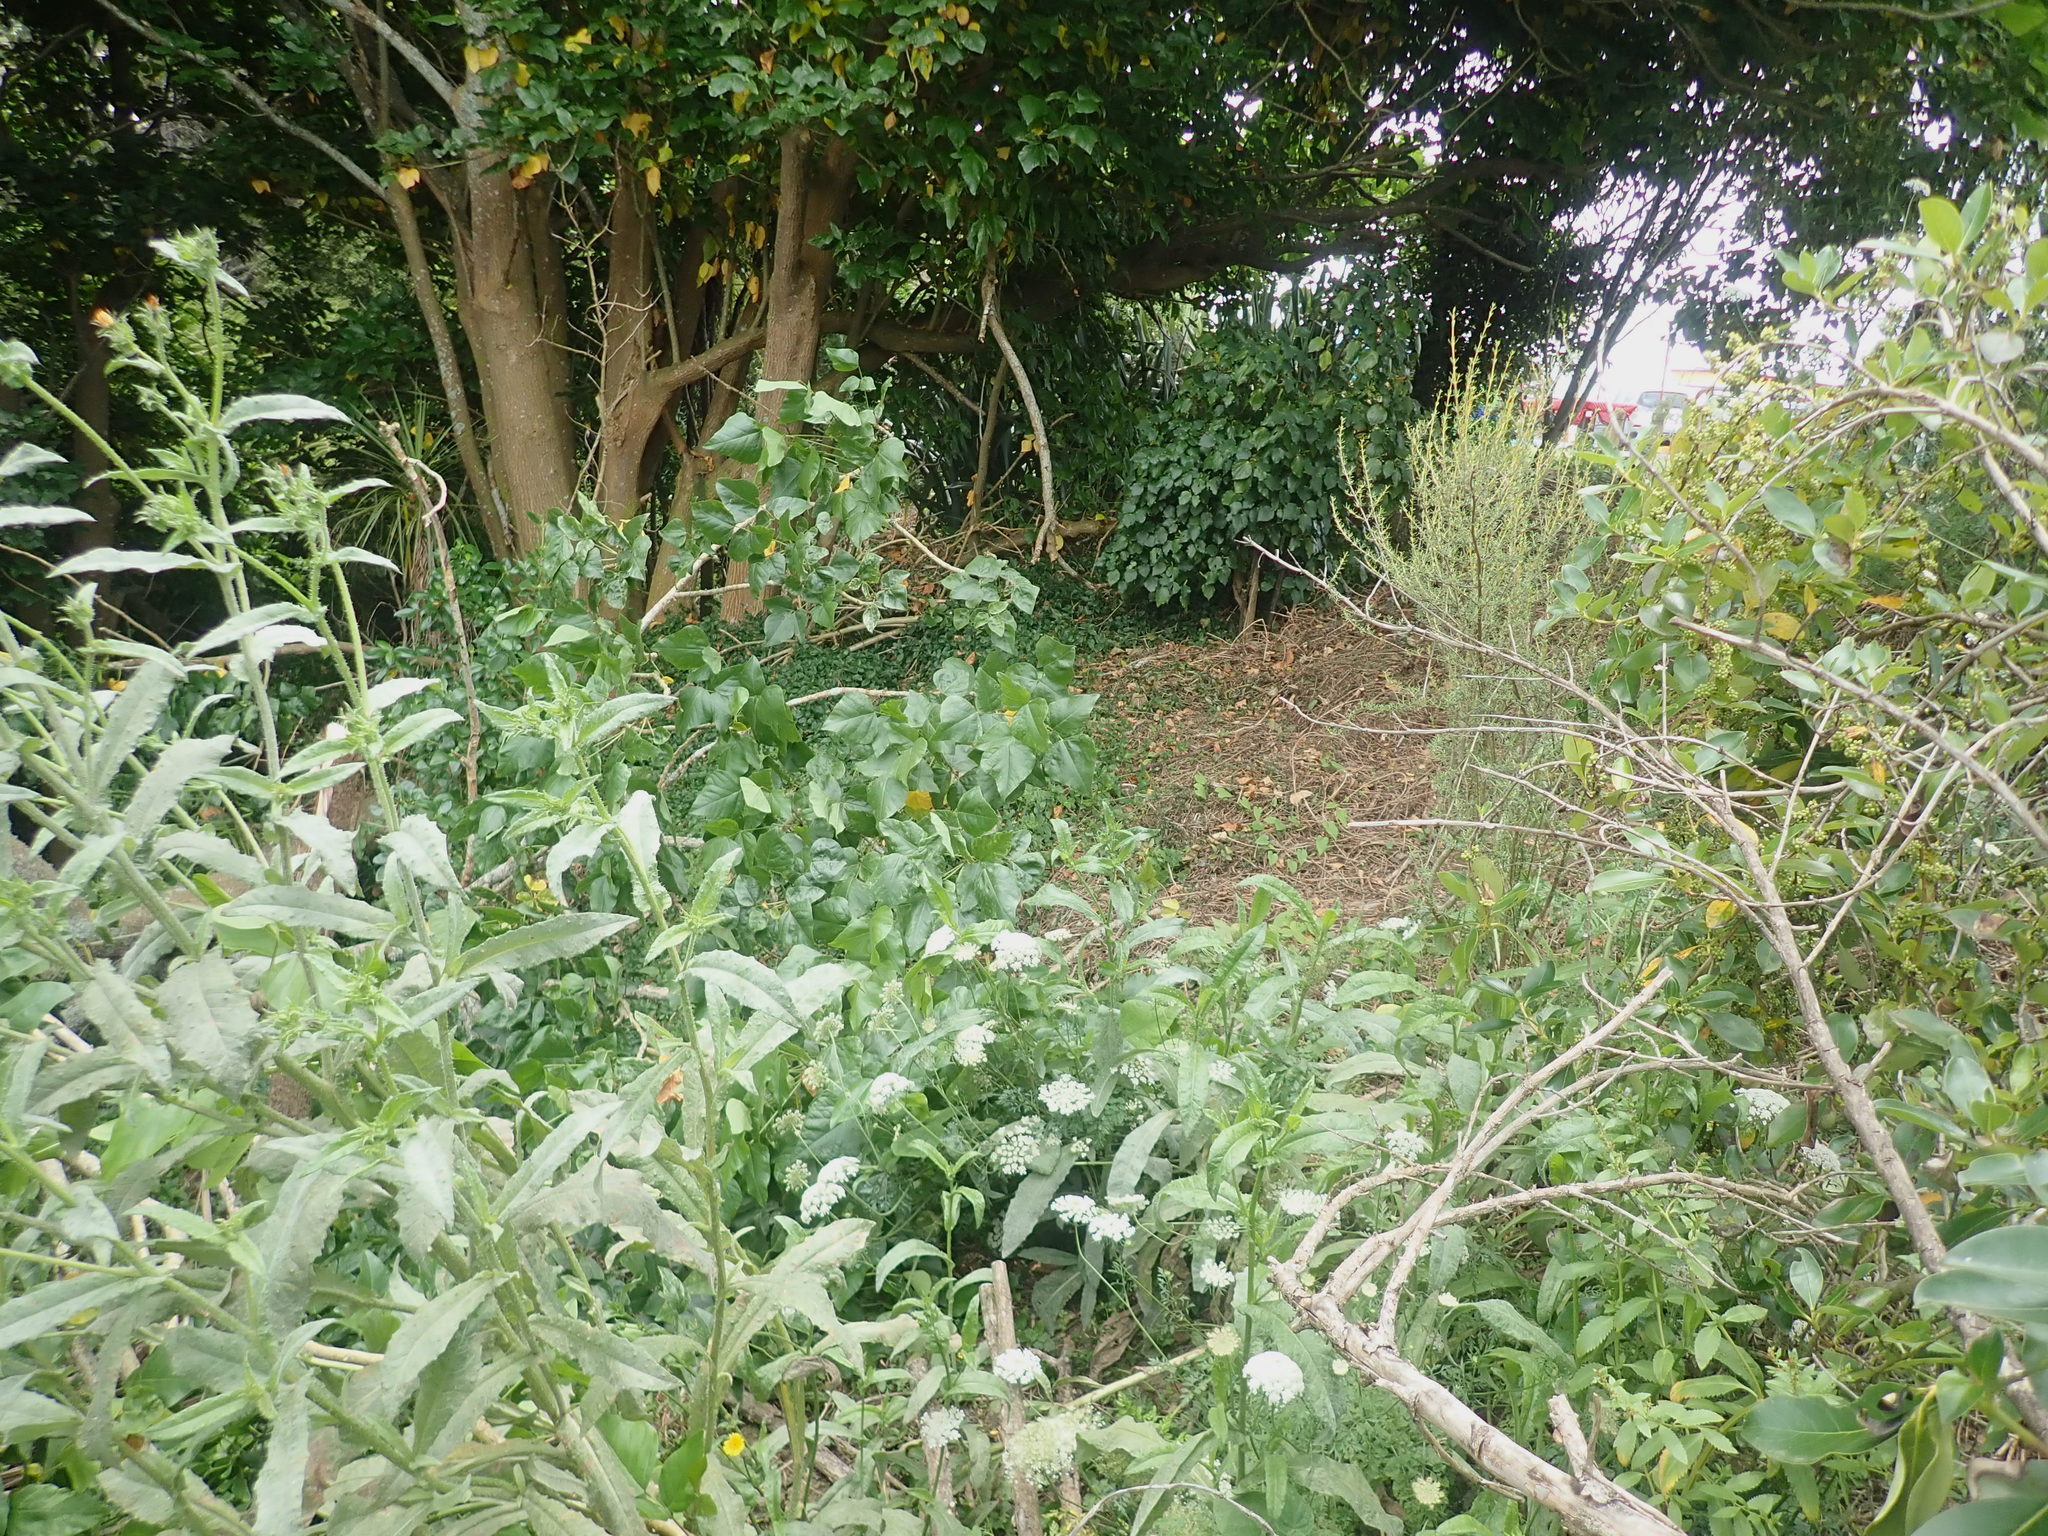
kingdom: Plantae
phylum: Tracheophyta
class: Magnoliopsida
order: Asterales
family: Asteraceae
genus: Olearia
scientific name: Olearia solandri
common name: Coastal daisybush
